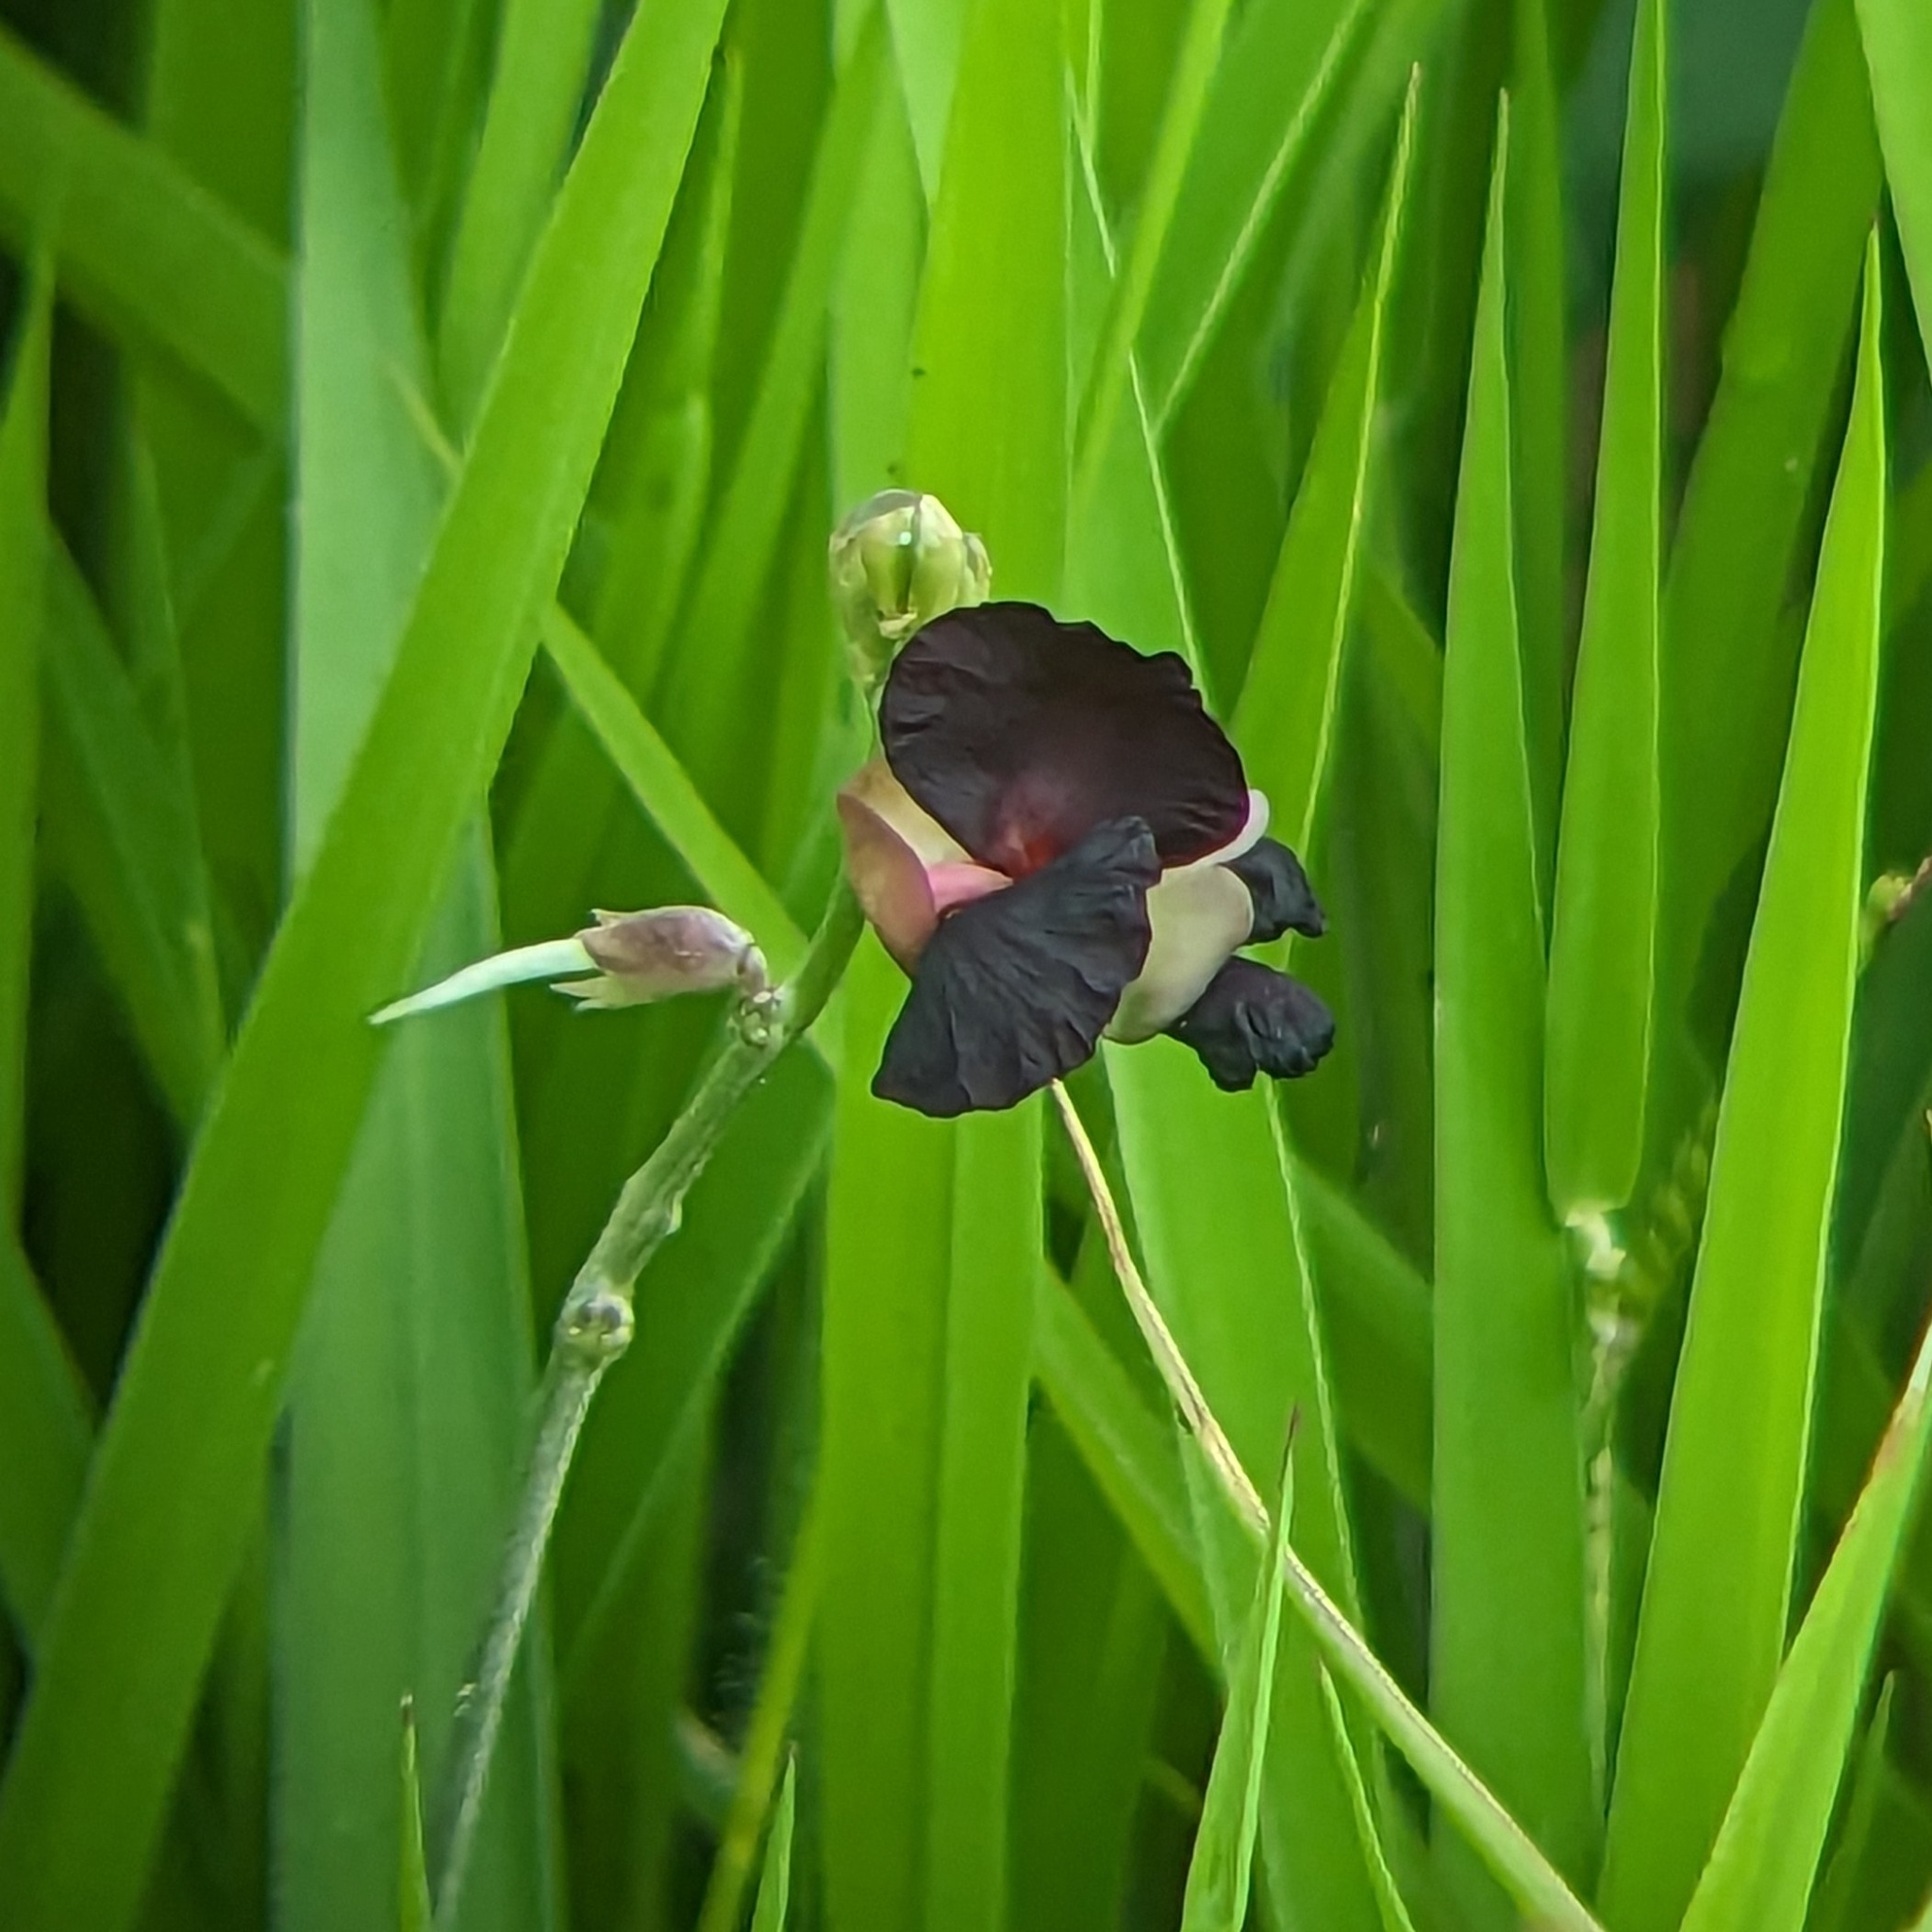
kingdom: Plantae
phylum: Tracheophyta
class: Magnoliopsida
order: Fabales
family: Fabaceae
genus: Macroptilium
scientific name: Macroptilium atropurpureum
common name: Purple bushbean
